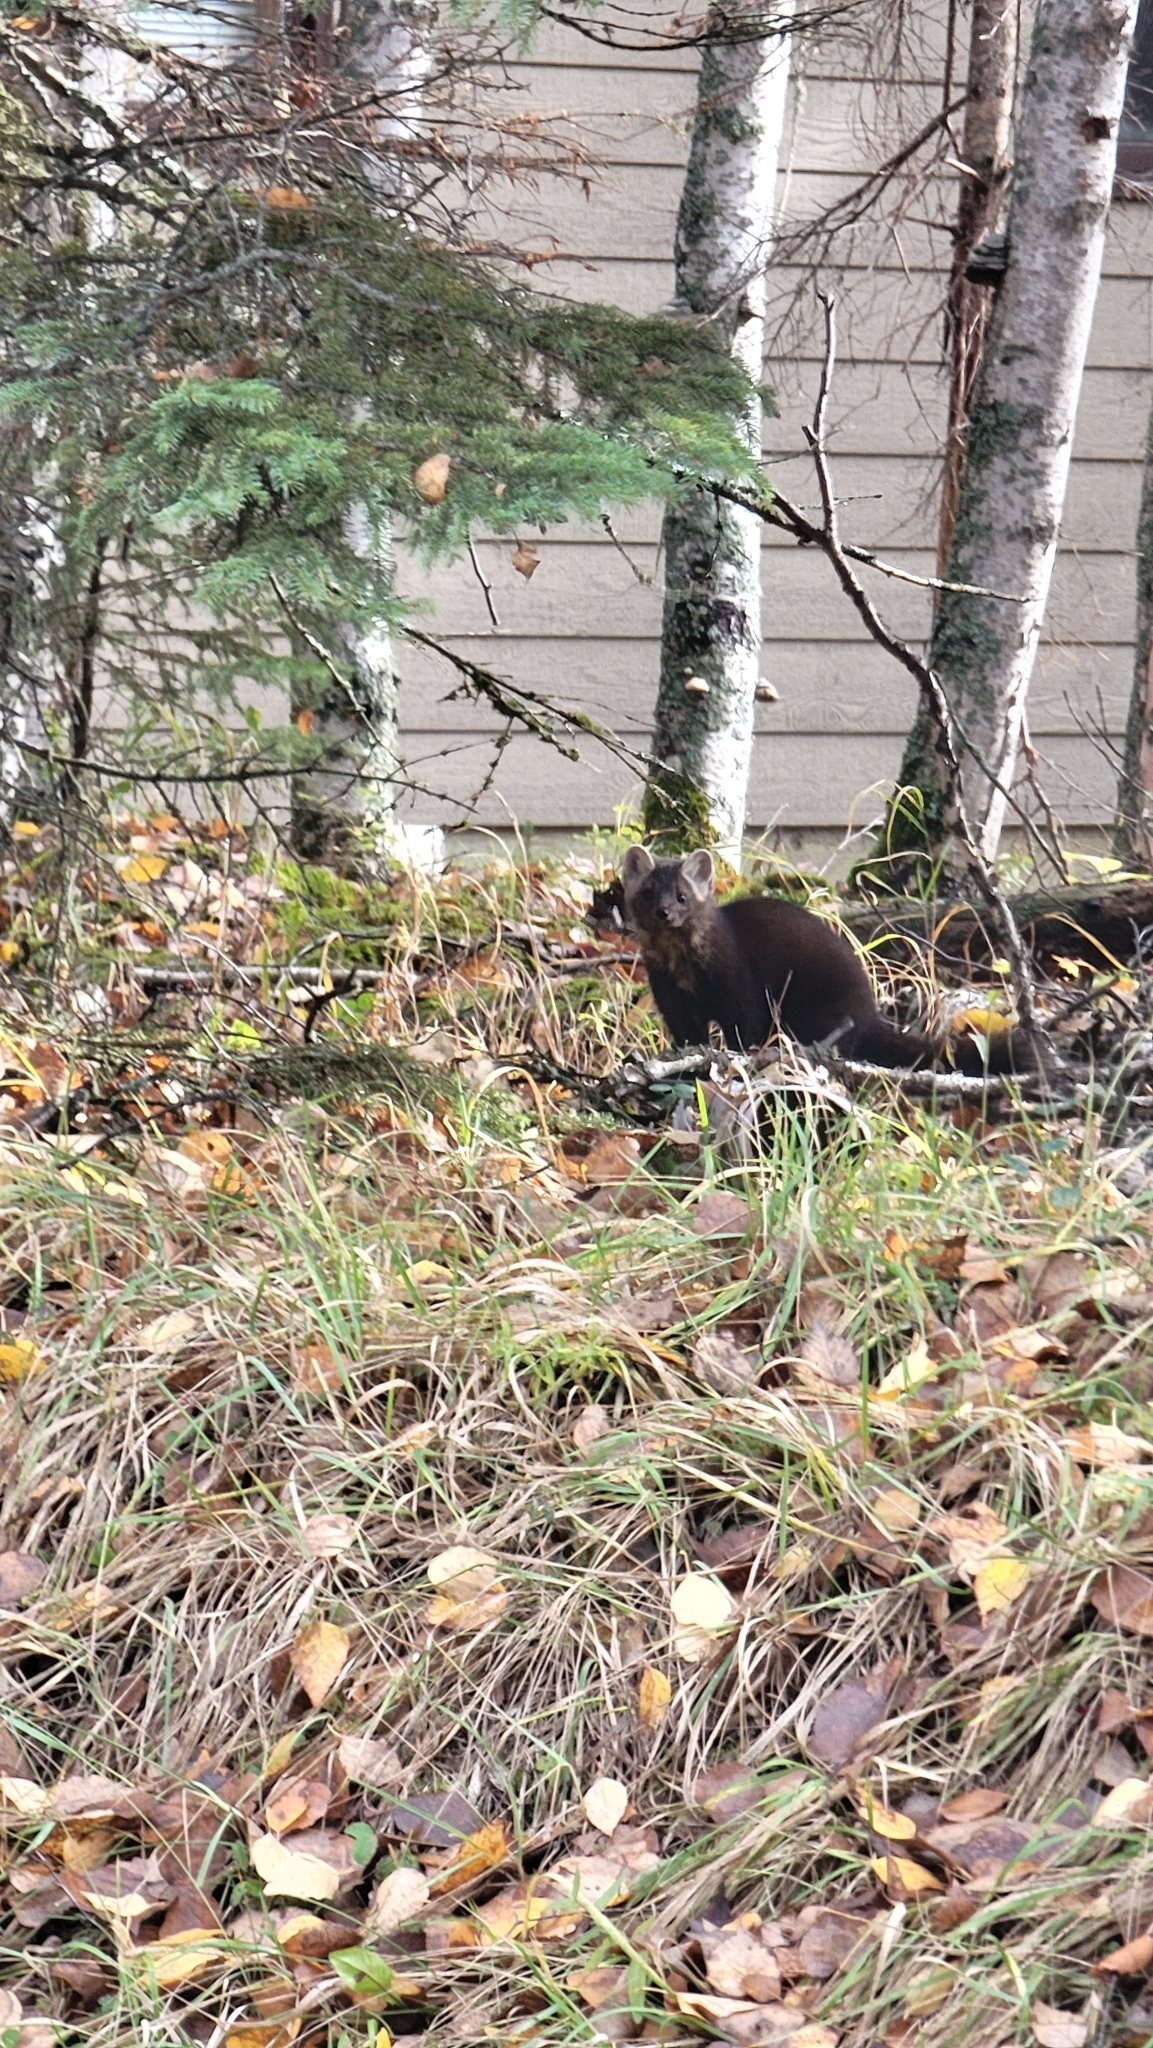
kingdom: Animalia
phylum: Chordata
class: Mammalia
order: Carnivora
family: Mustelidae
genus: Martes
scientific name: Martes americana
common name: American marten
